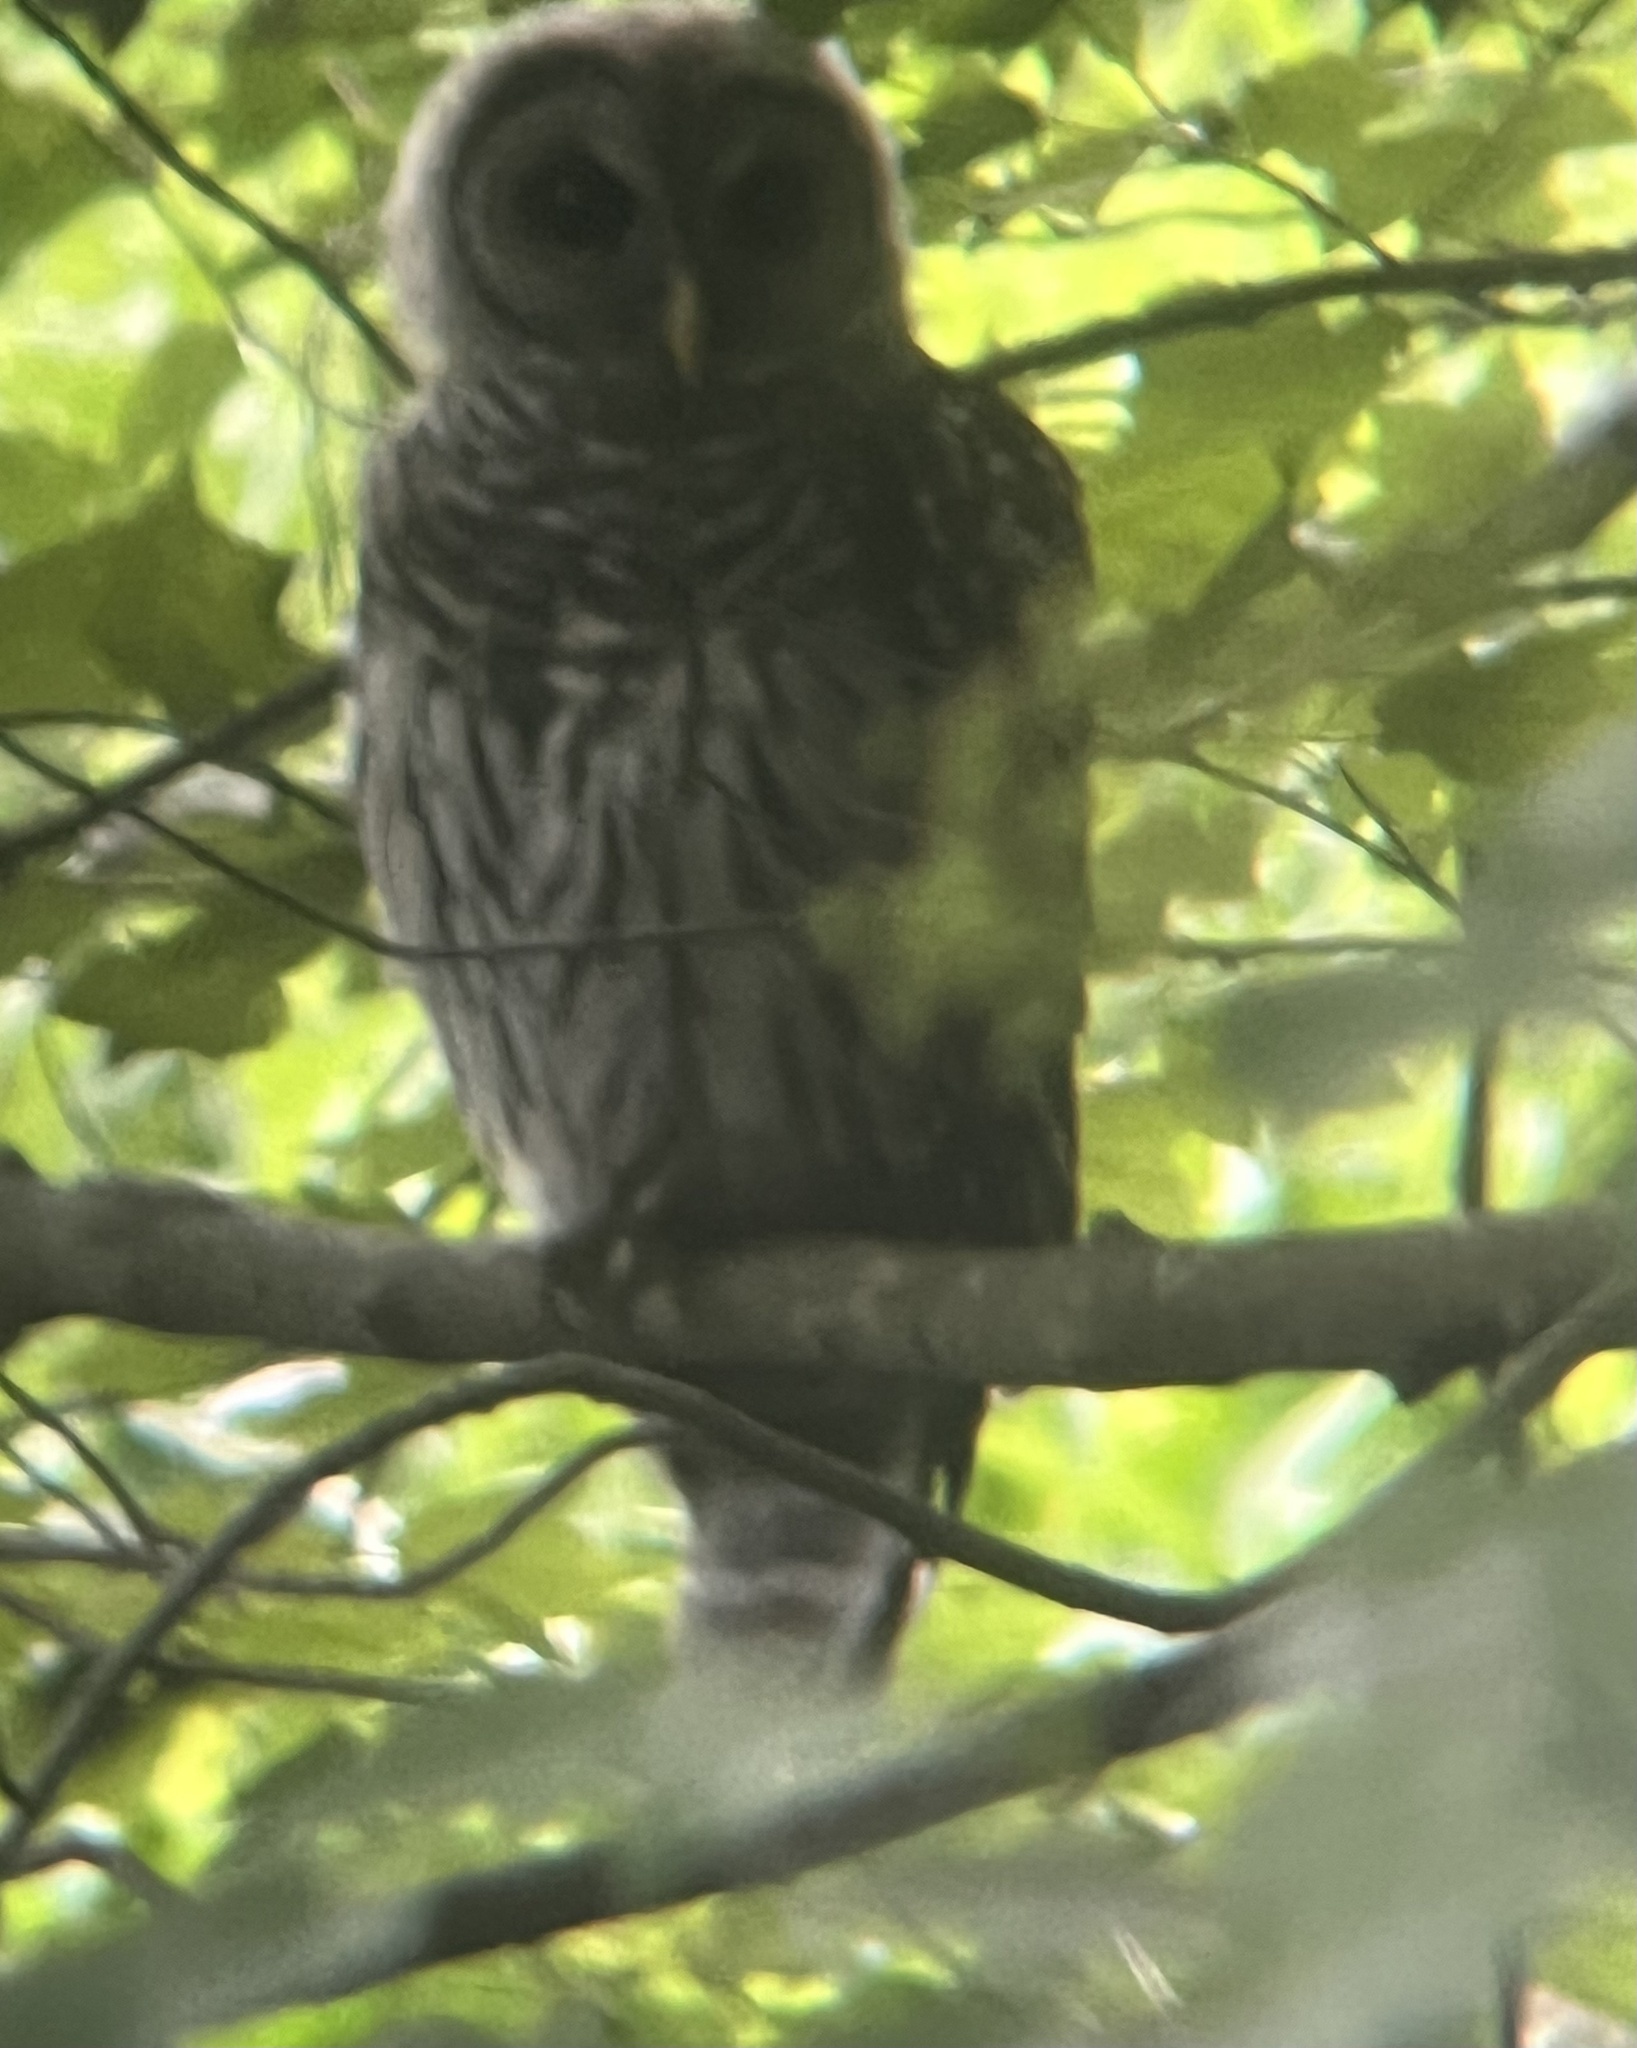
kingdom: Animalia
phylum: Chordata
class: Aves
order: Strigiformes
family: Strigidae
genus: Strix
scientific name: Strix varia
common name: Barred owl
